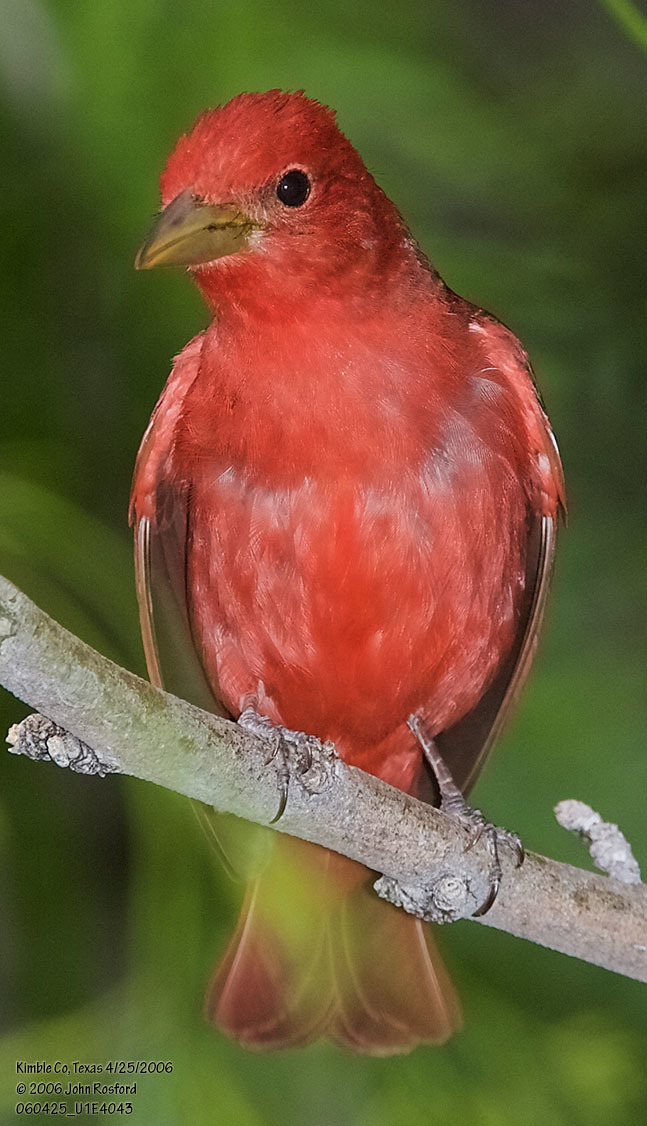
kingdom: Animalia
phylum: Chordata
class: Aves
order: Passeriformes
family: Cardinalidae
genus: Piranga
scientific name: Piranga rubra
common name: Summer tanager
